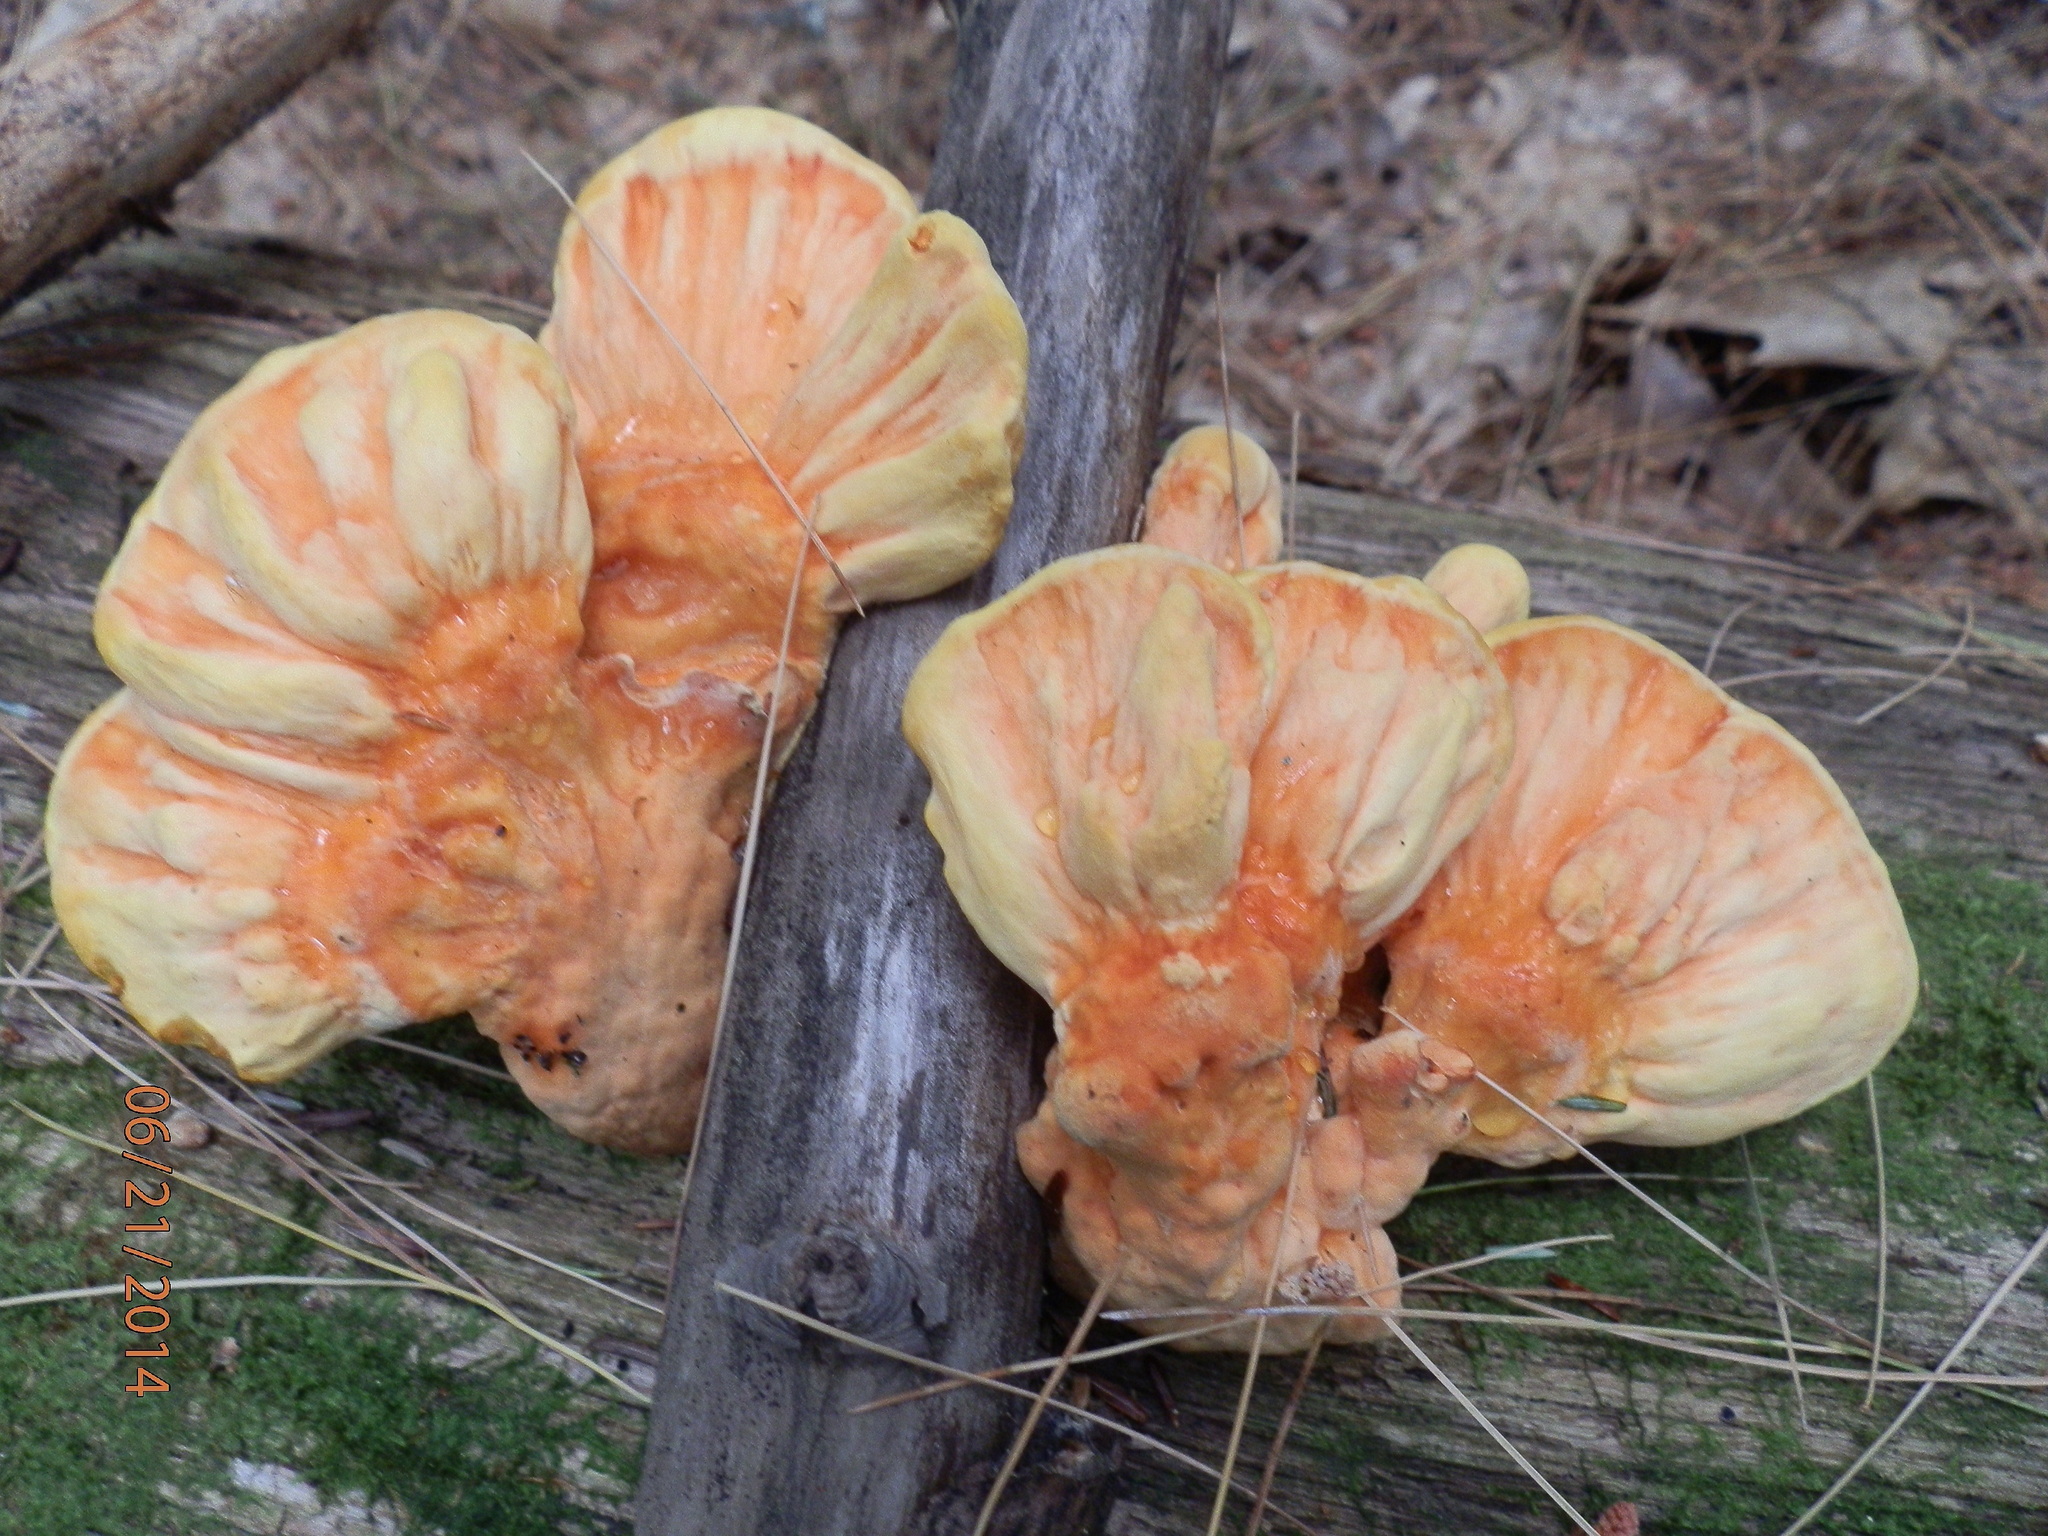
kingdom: Fungi
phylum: Basidiomycota
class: Agaricomycetes
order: Polyporales
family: Laetiporaceae
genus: Laetiporus
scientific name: Laetiporus sulphureus
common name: Chicken of the woods
